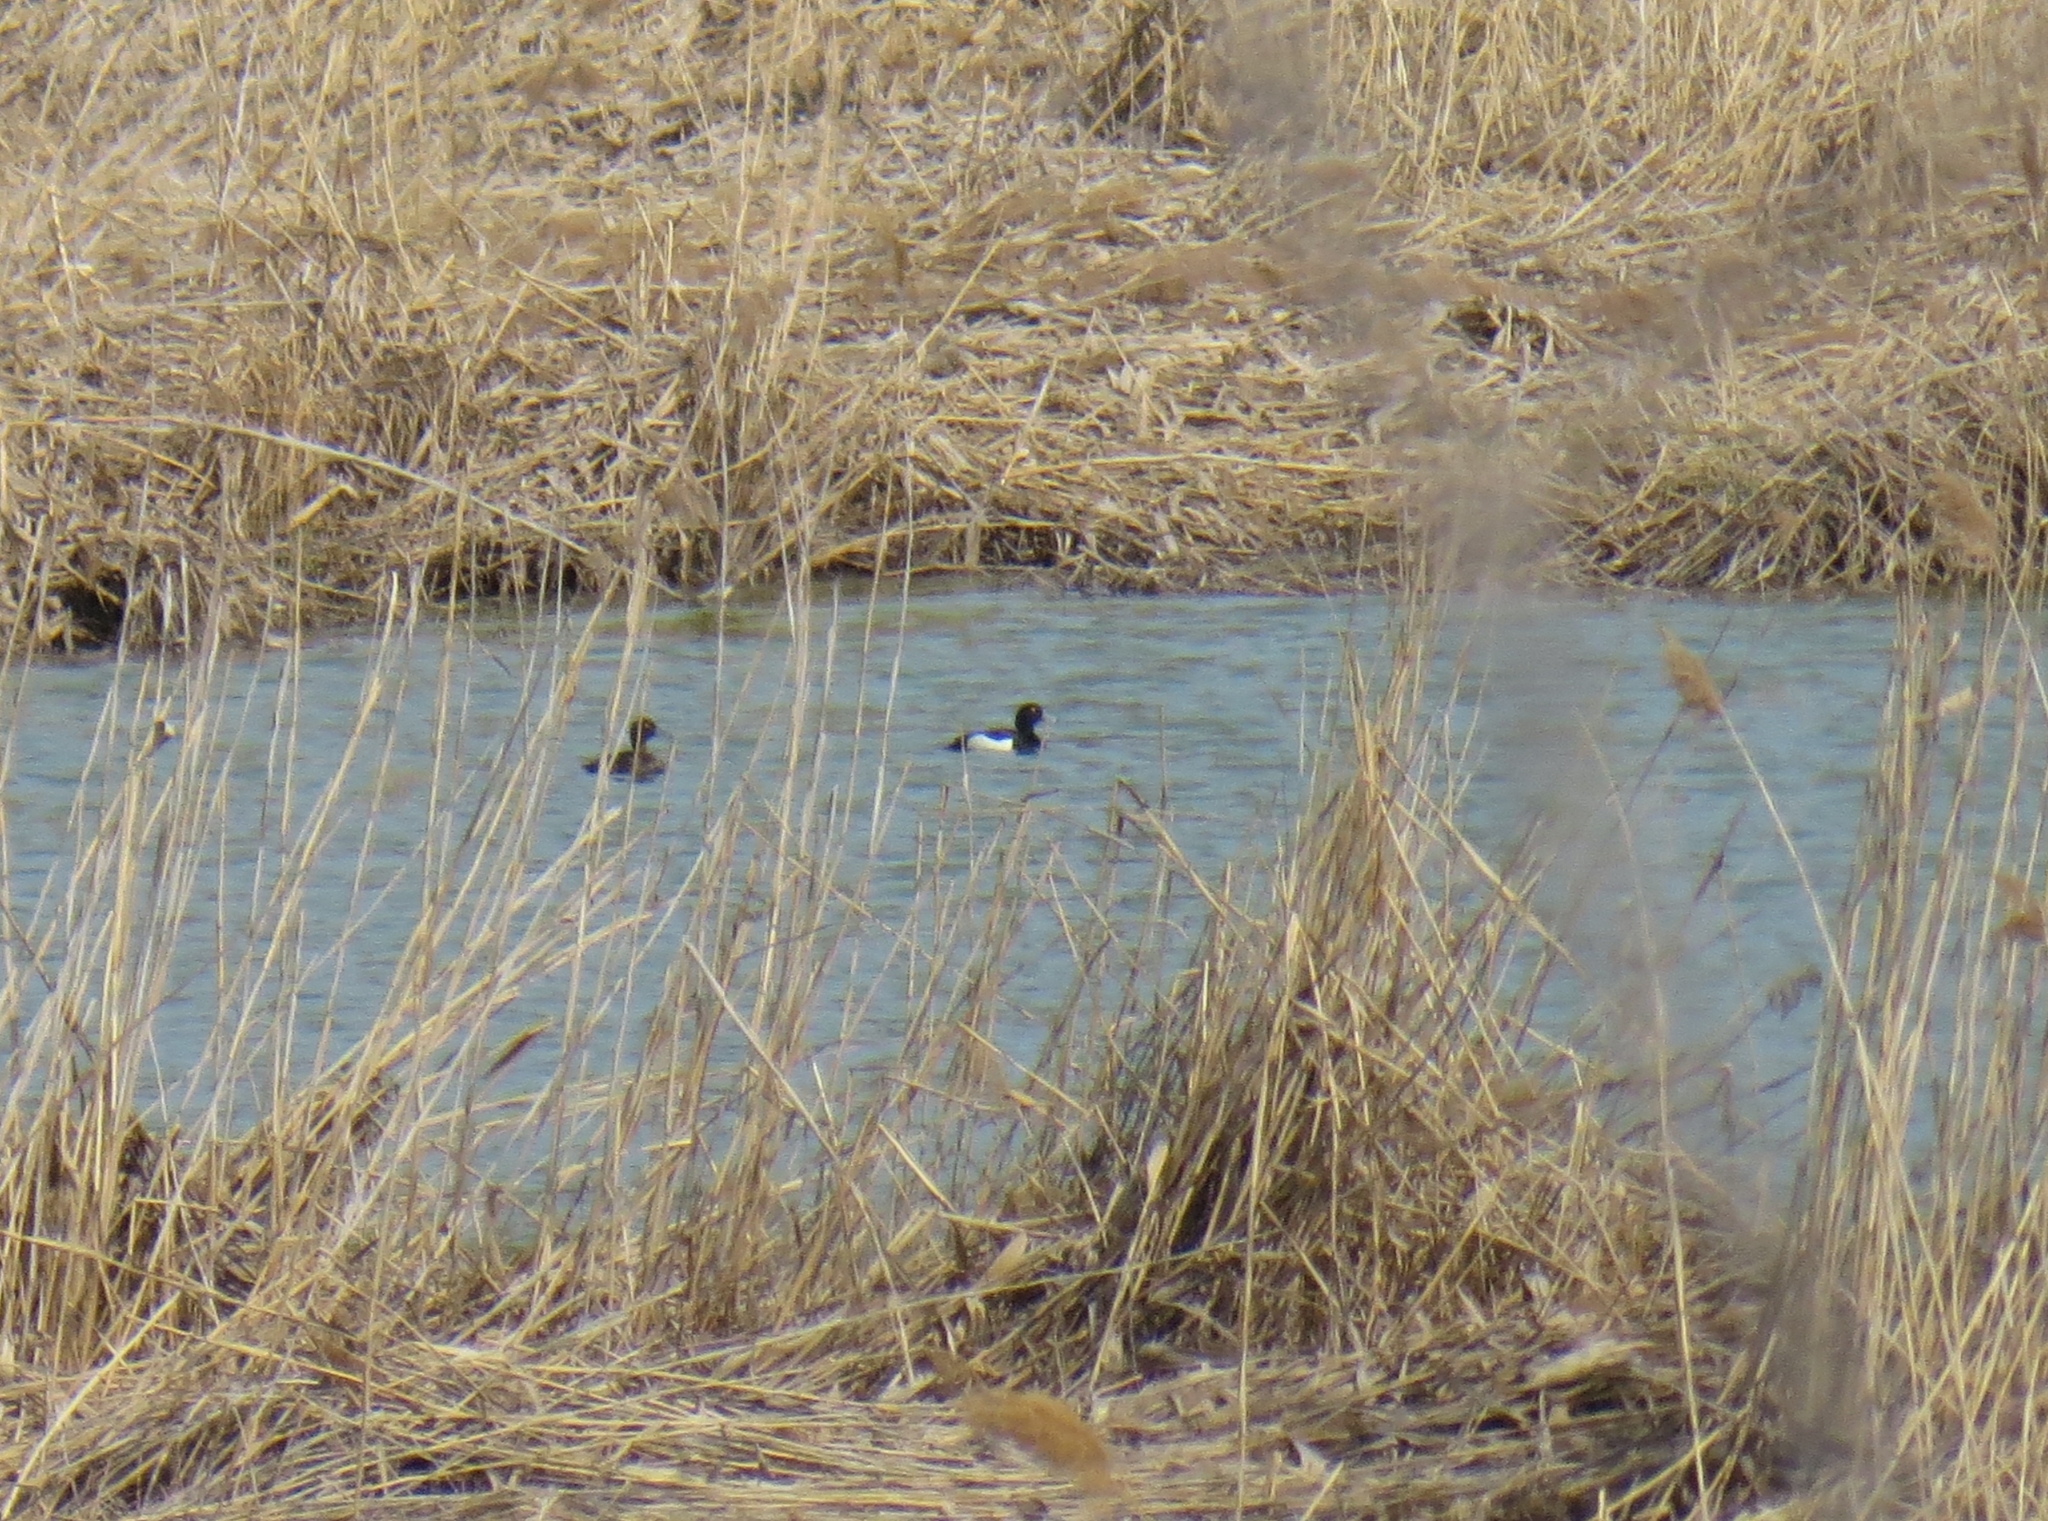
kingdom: Animalia
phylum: Chordata
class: Aves
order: Anseriformes
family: Anatidae
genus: Aythya
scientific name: Aythya fuligula
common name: Tufted duck
